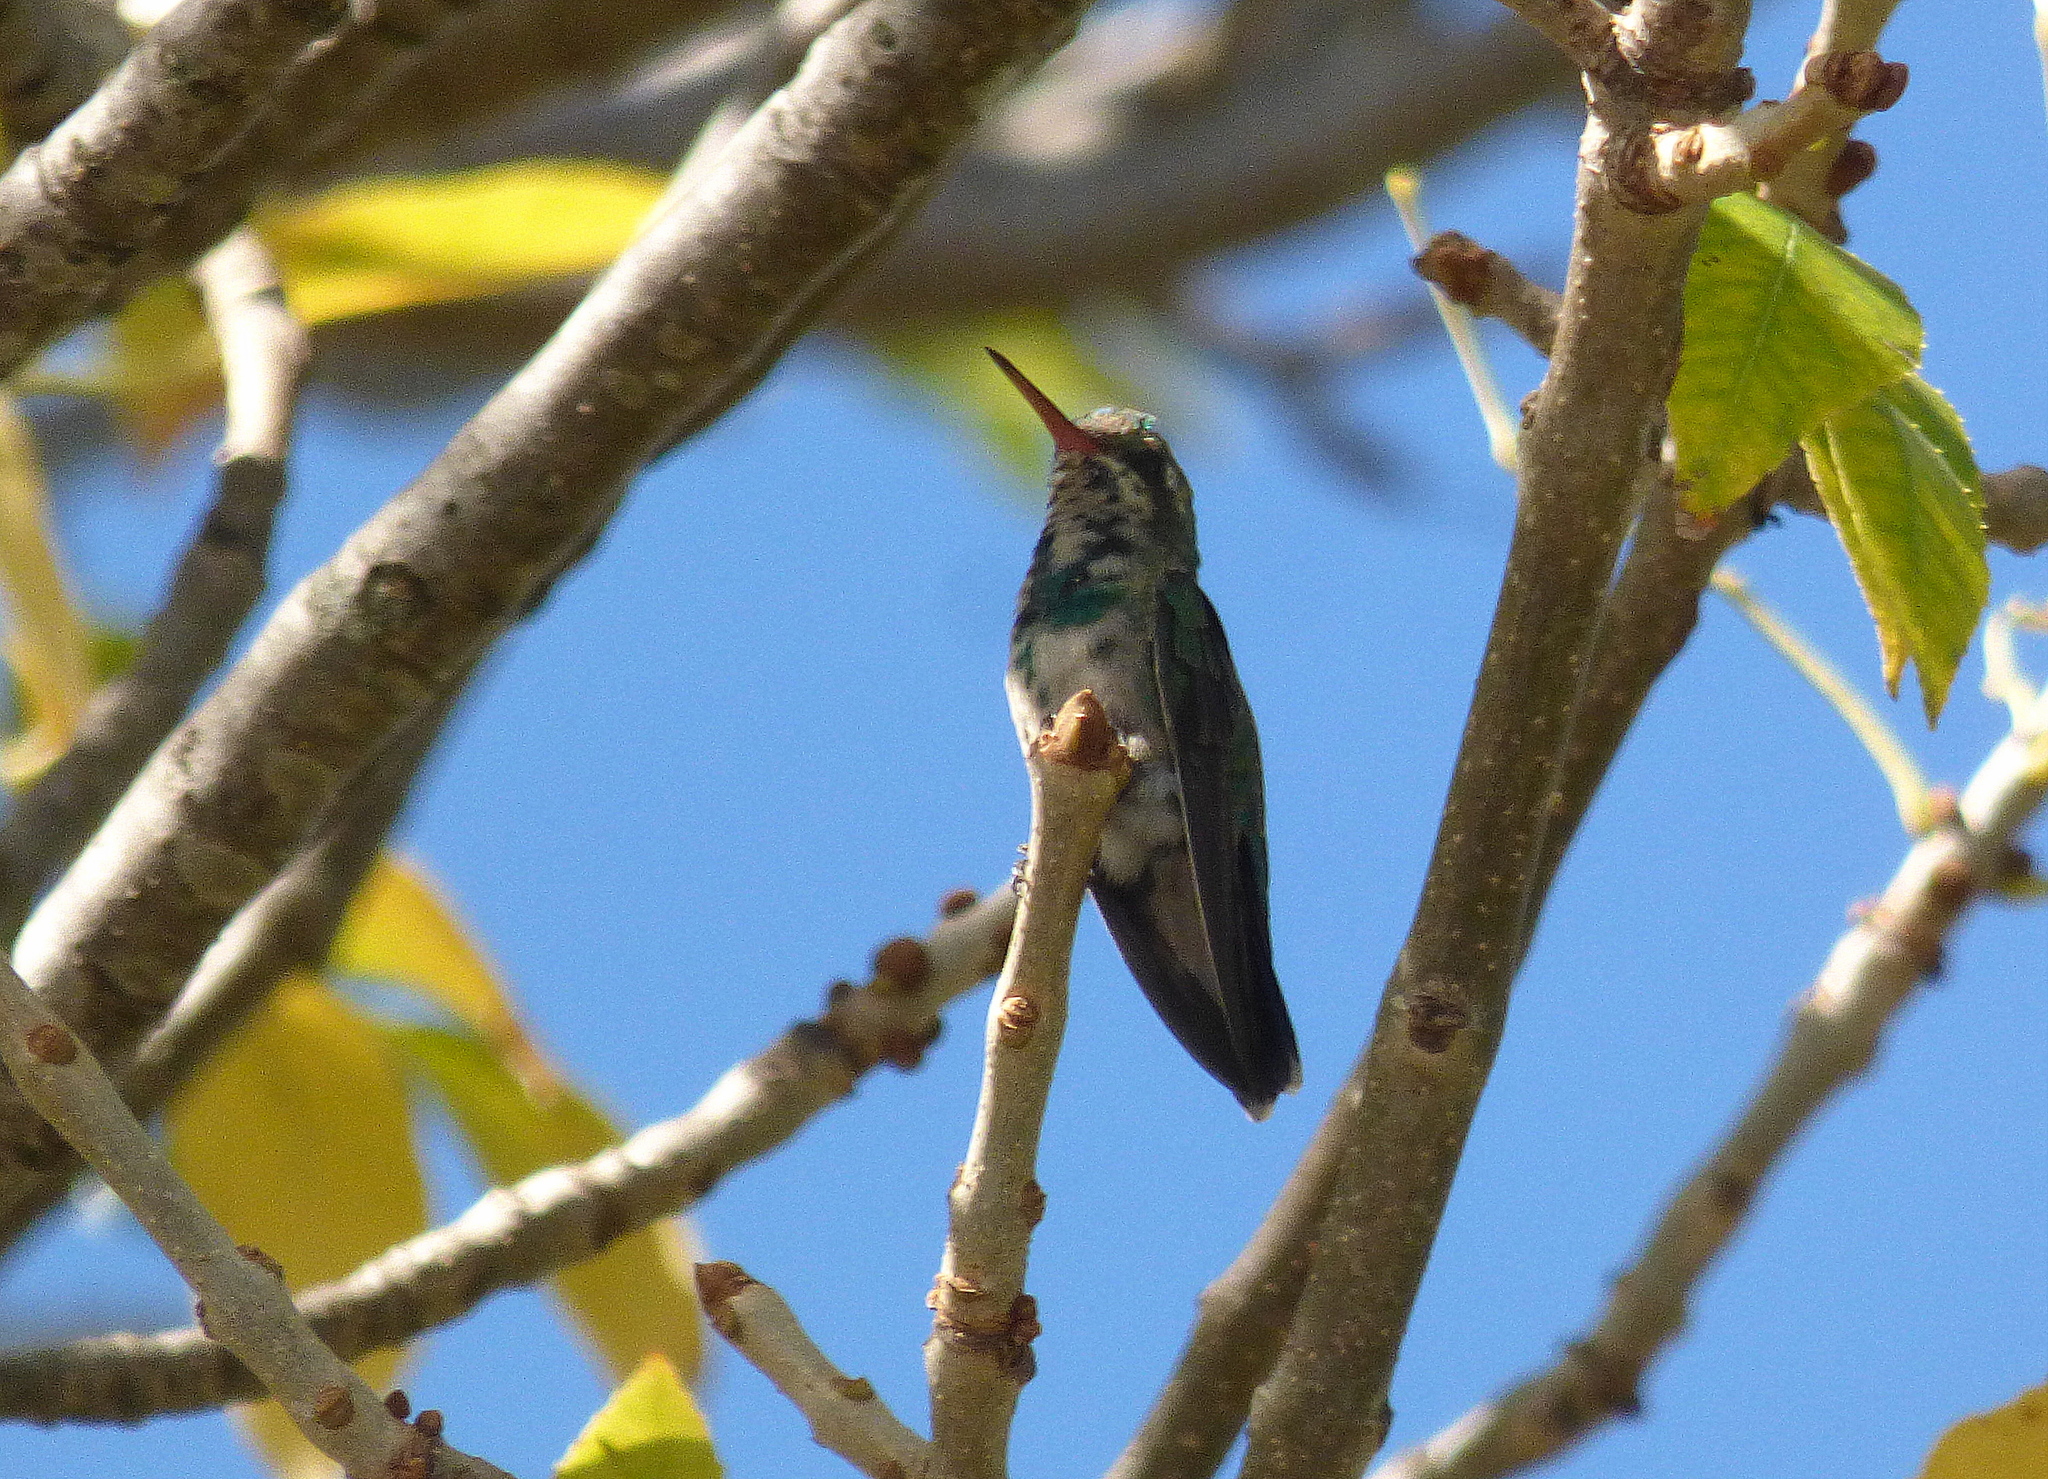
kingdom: Animalia
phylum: Chordata
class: Aves
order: Apodiformes
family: Trochilidae
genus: Chlorostilbon
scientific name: Chlorostilbon lucidus
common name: Glittering-bellied emerald
